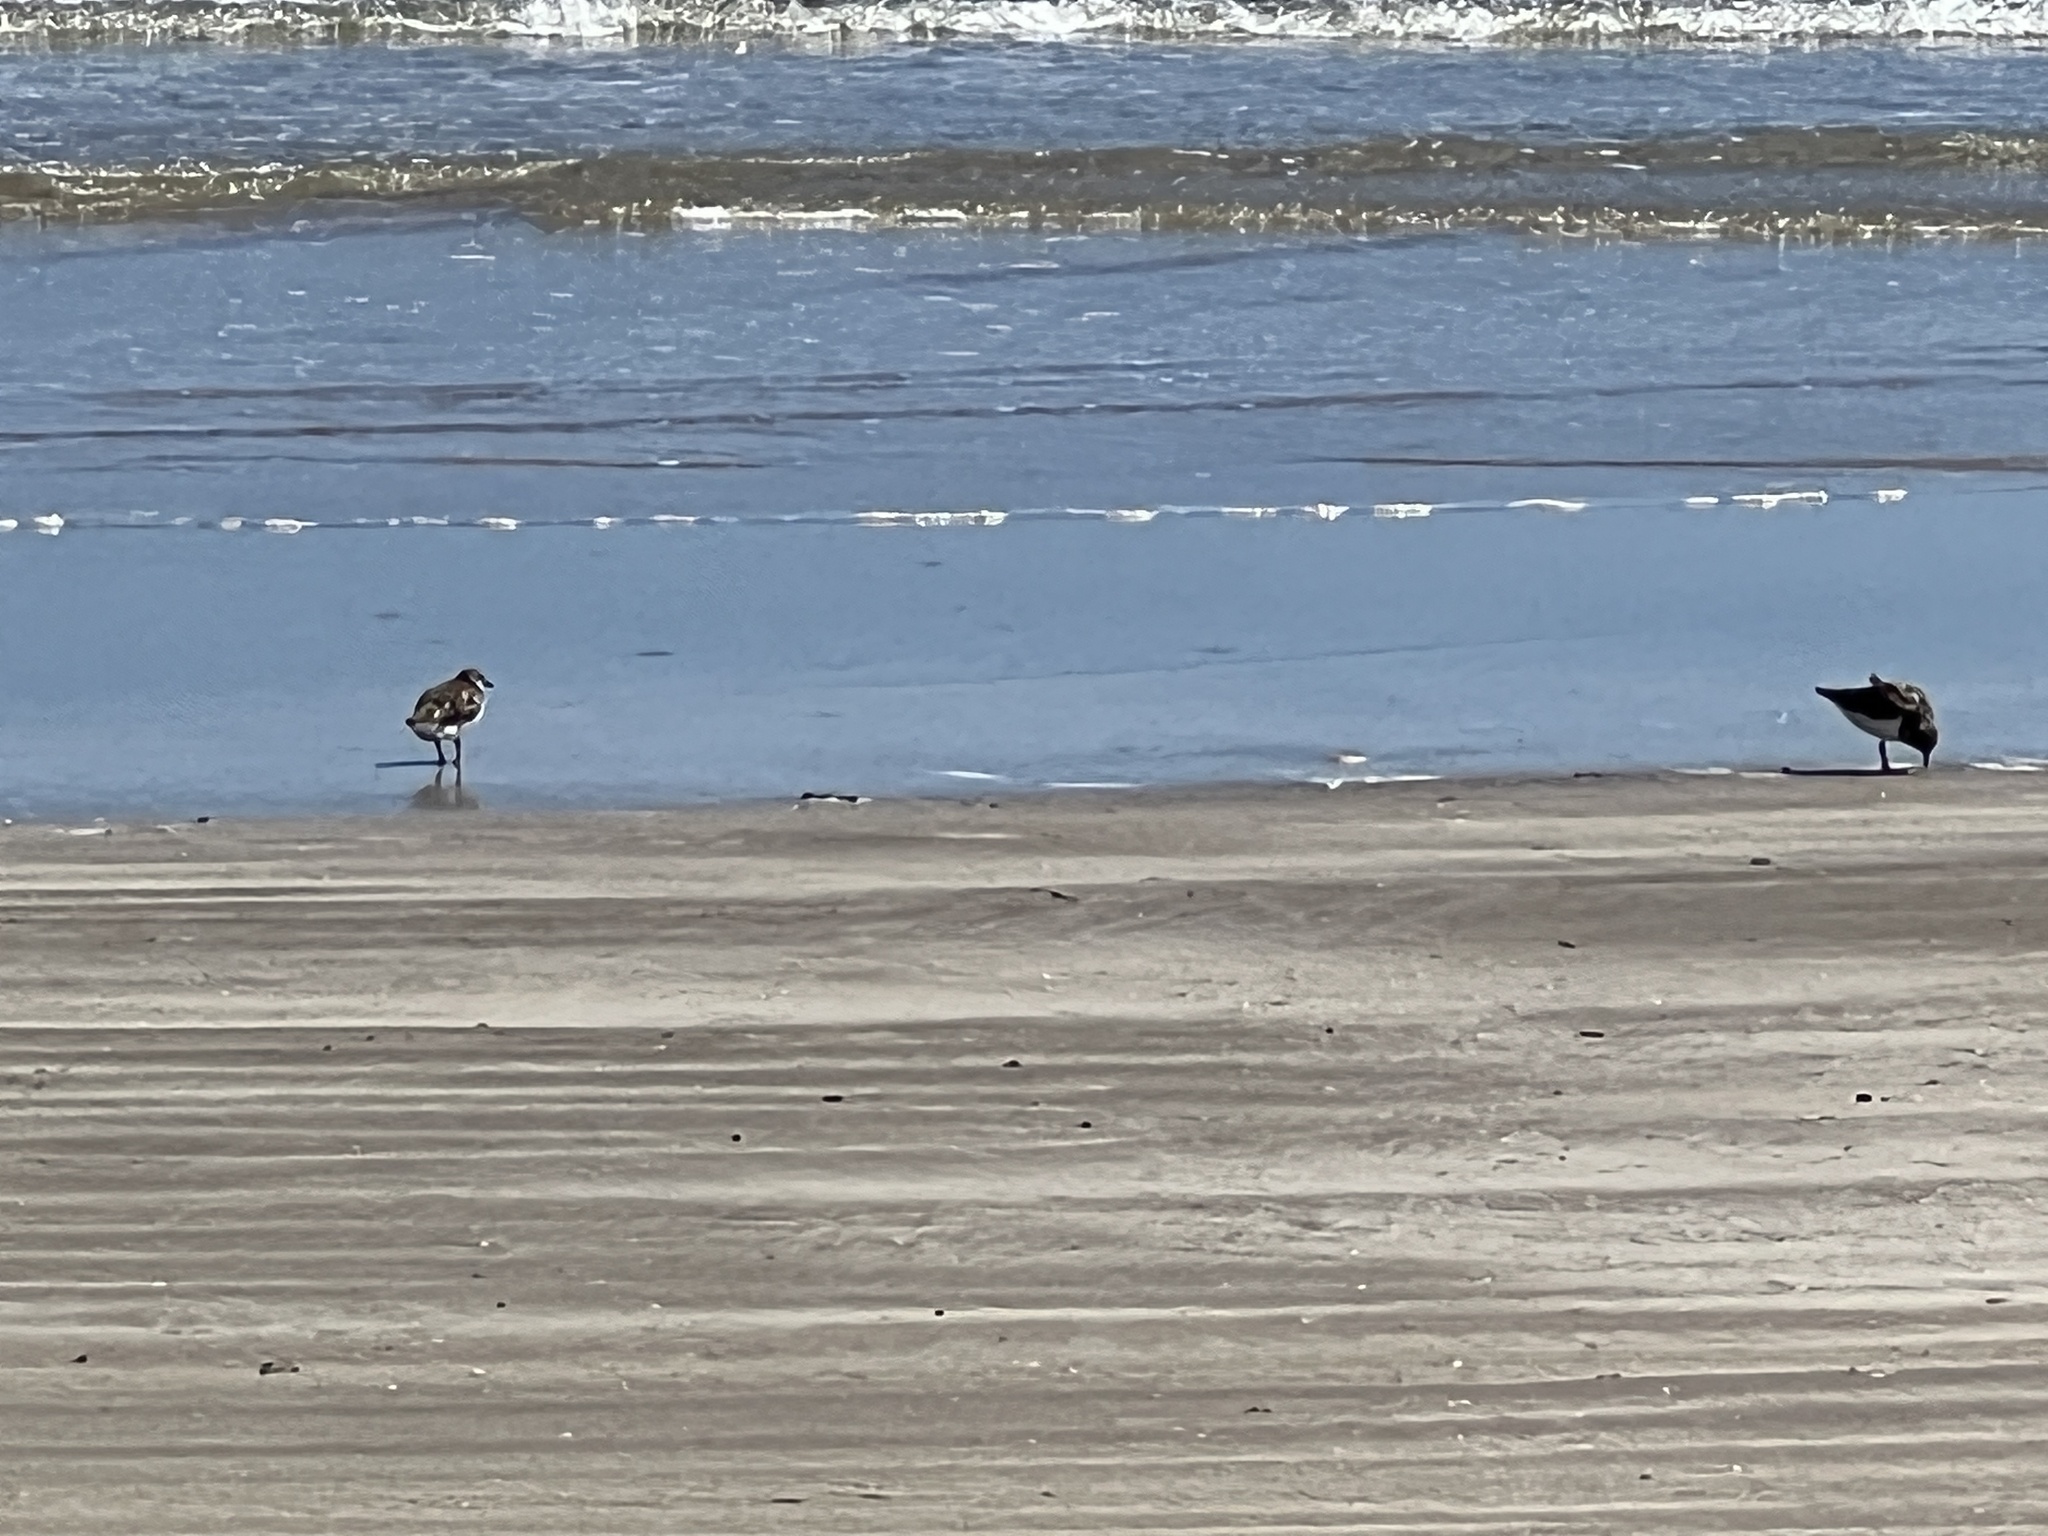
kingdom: Animalia
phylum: Chordata
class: Aves
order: Charadriiformes
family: Scolopacidae
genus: Arenaria
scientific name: Arenaria interpres
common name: Ruddy turnstone
